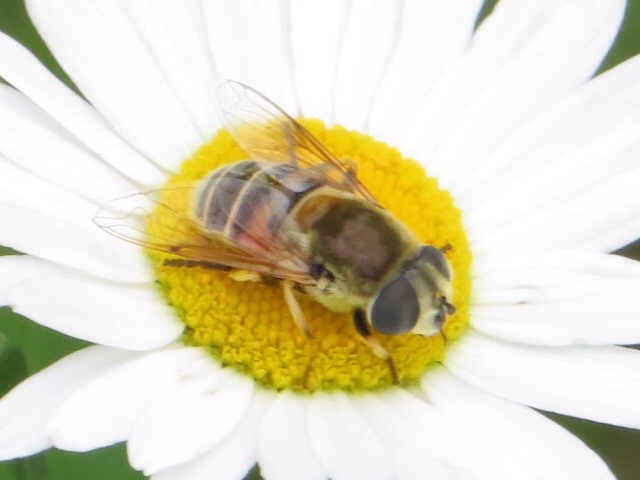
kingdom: Animalia
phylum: Arthropoda
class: Insecta
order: Diptera
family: Syrphidae
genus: Eristalis
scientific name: Eristalis stipator
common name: Yellow-shouldered drone fly
